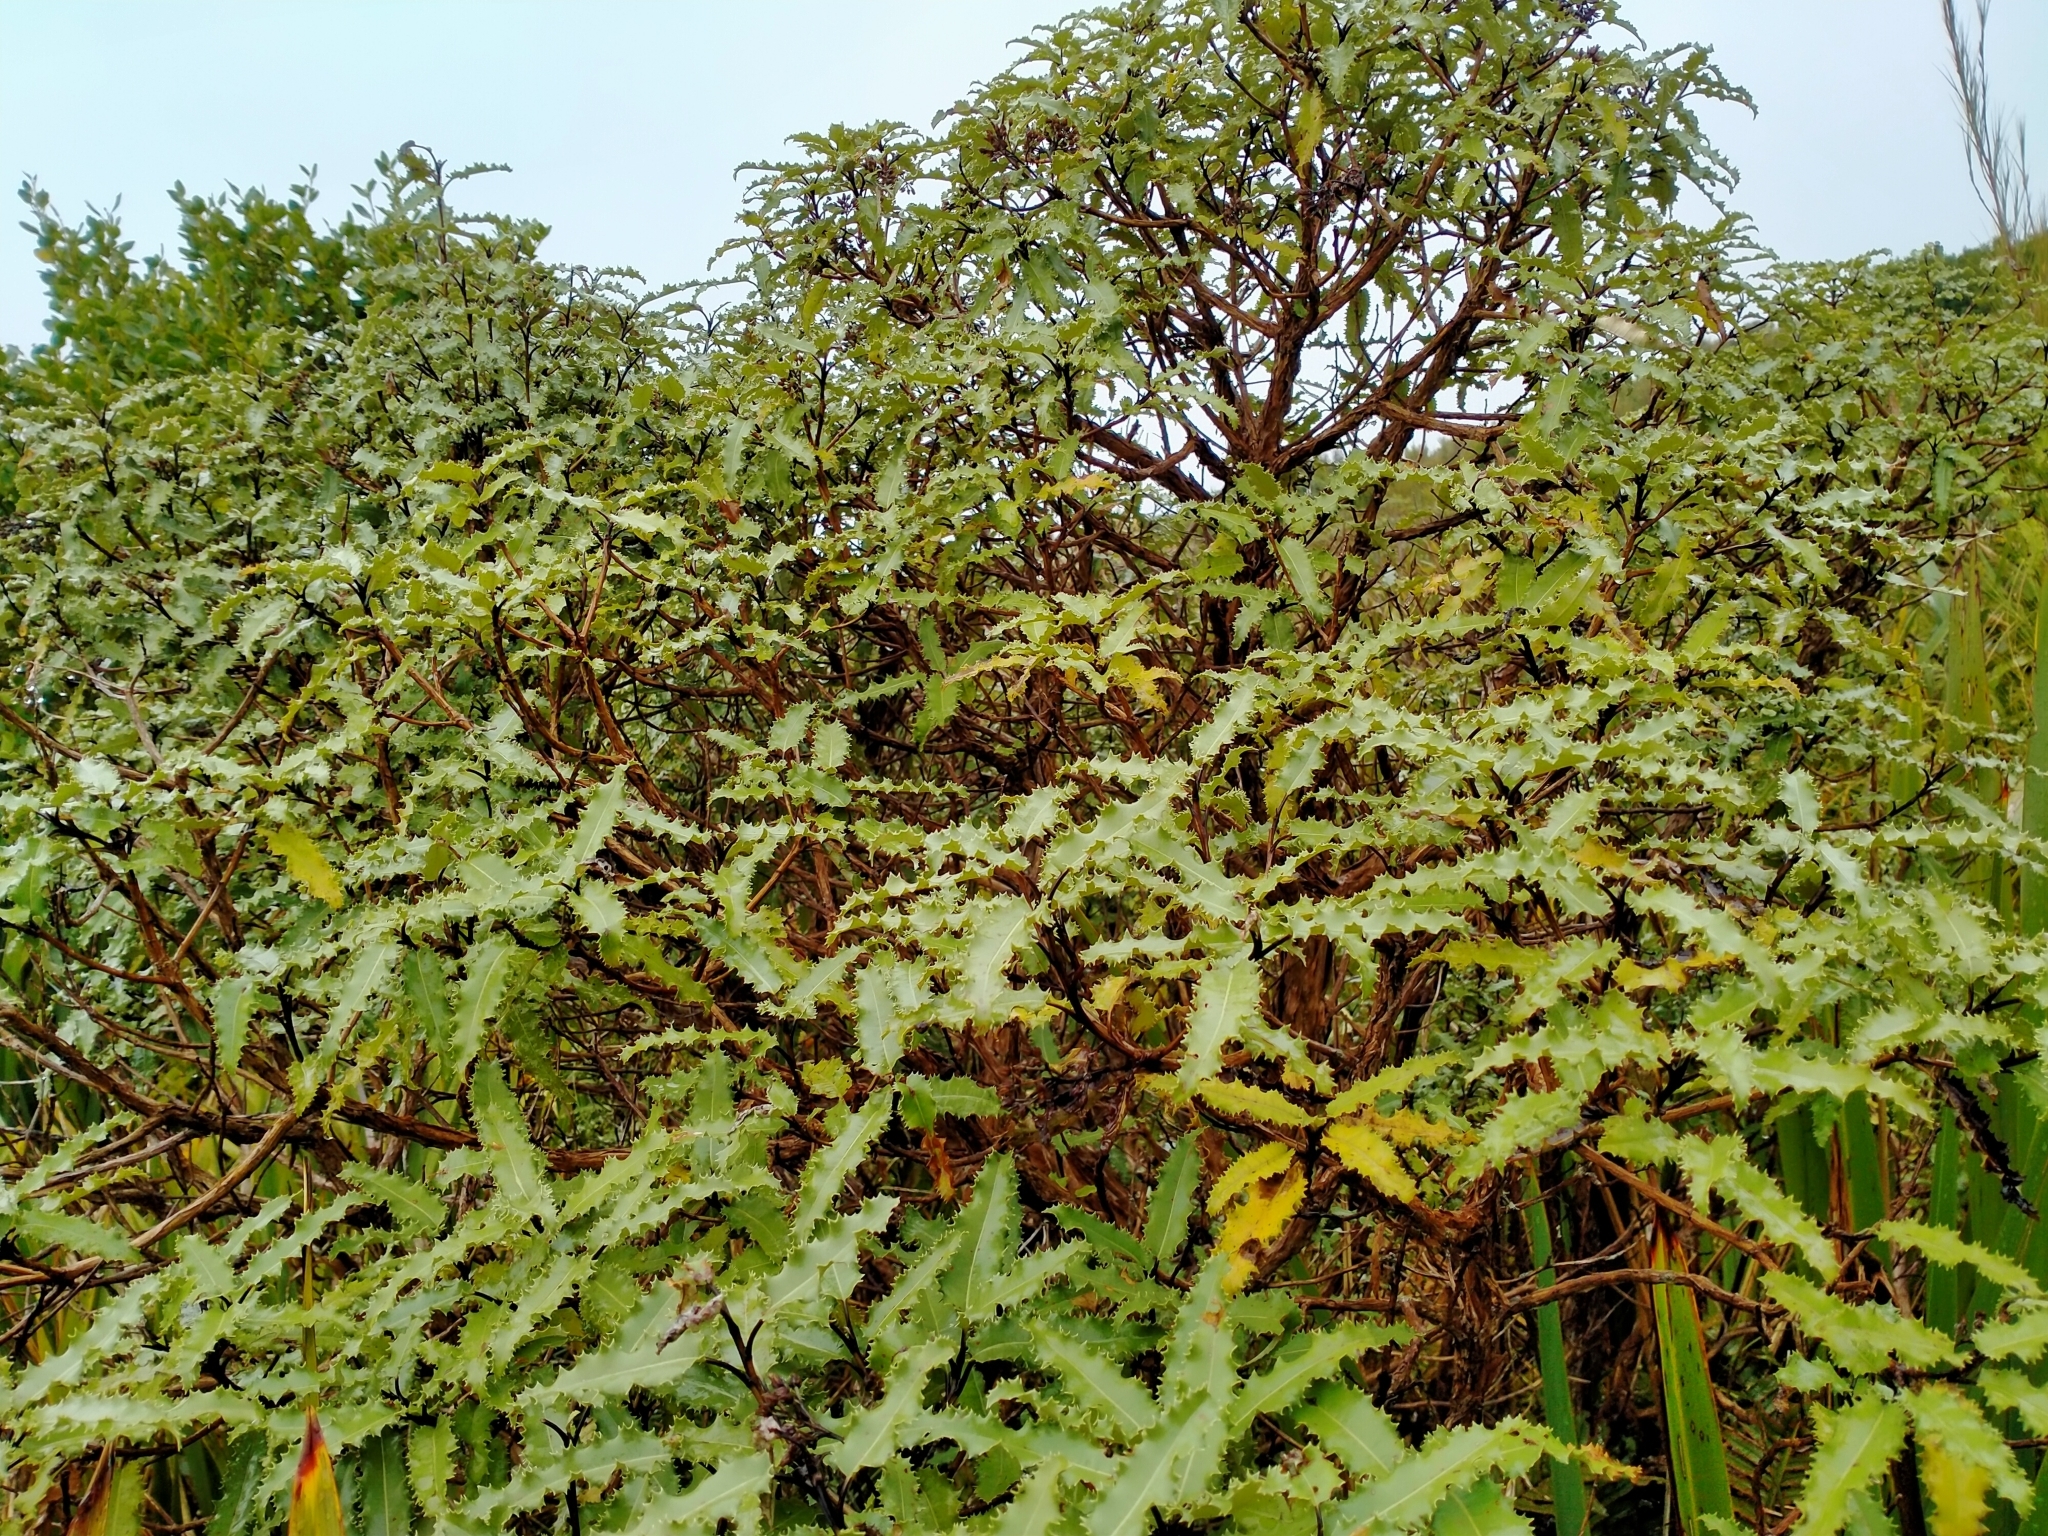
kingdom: Plantae
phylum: Tracheophyta
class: Magnoliopsida
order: Asterales
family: Asteraceae
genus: Olearia
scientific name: Olearia ilicifolia
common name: Maori-holly
